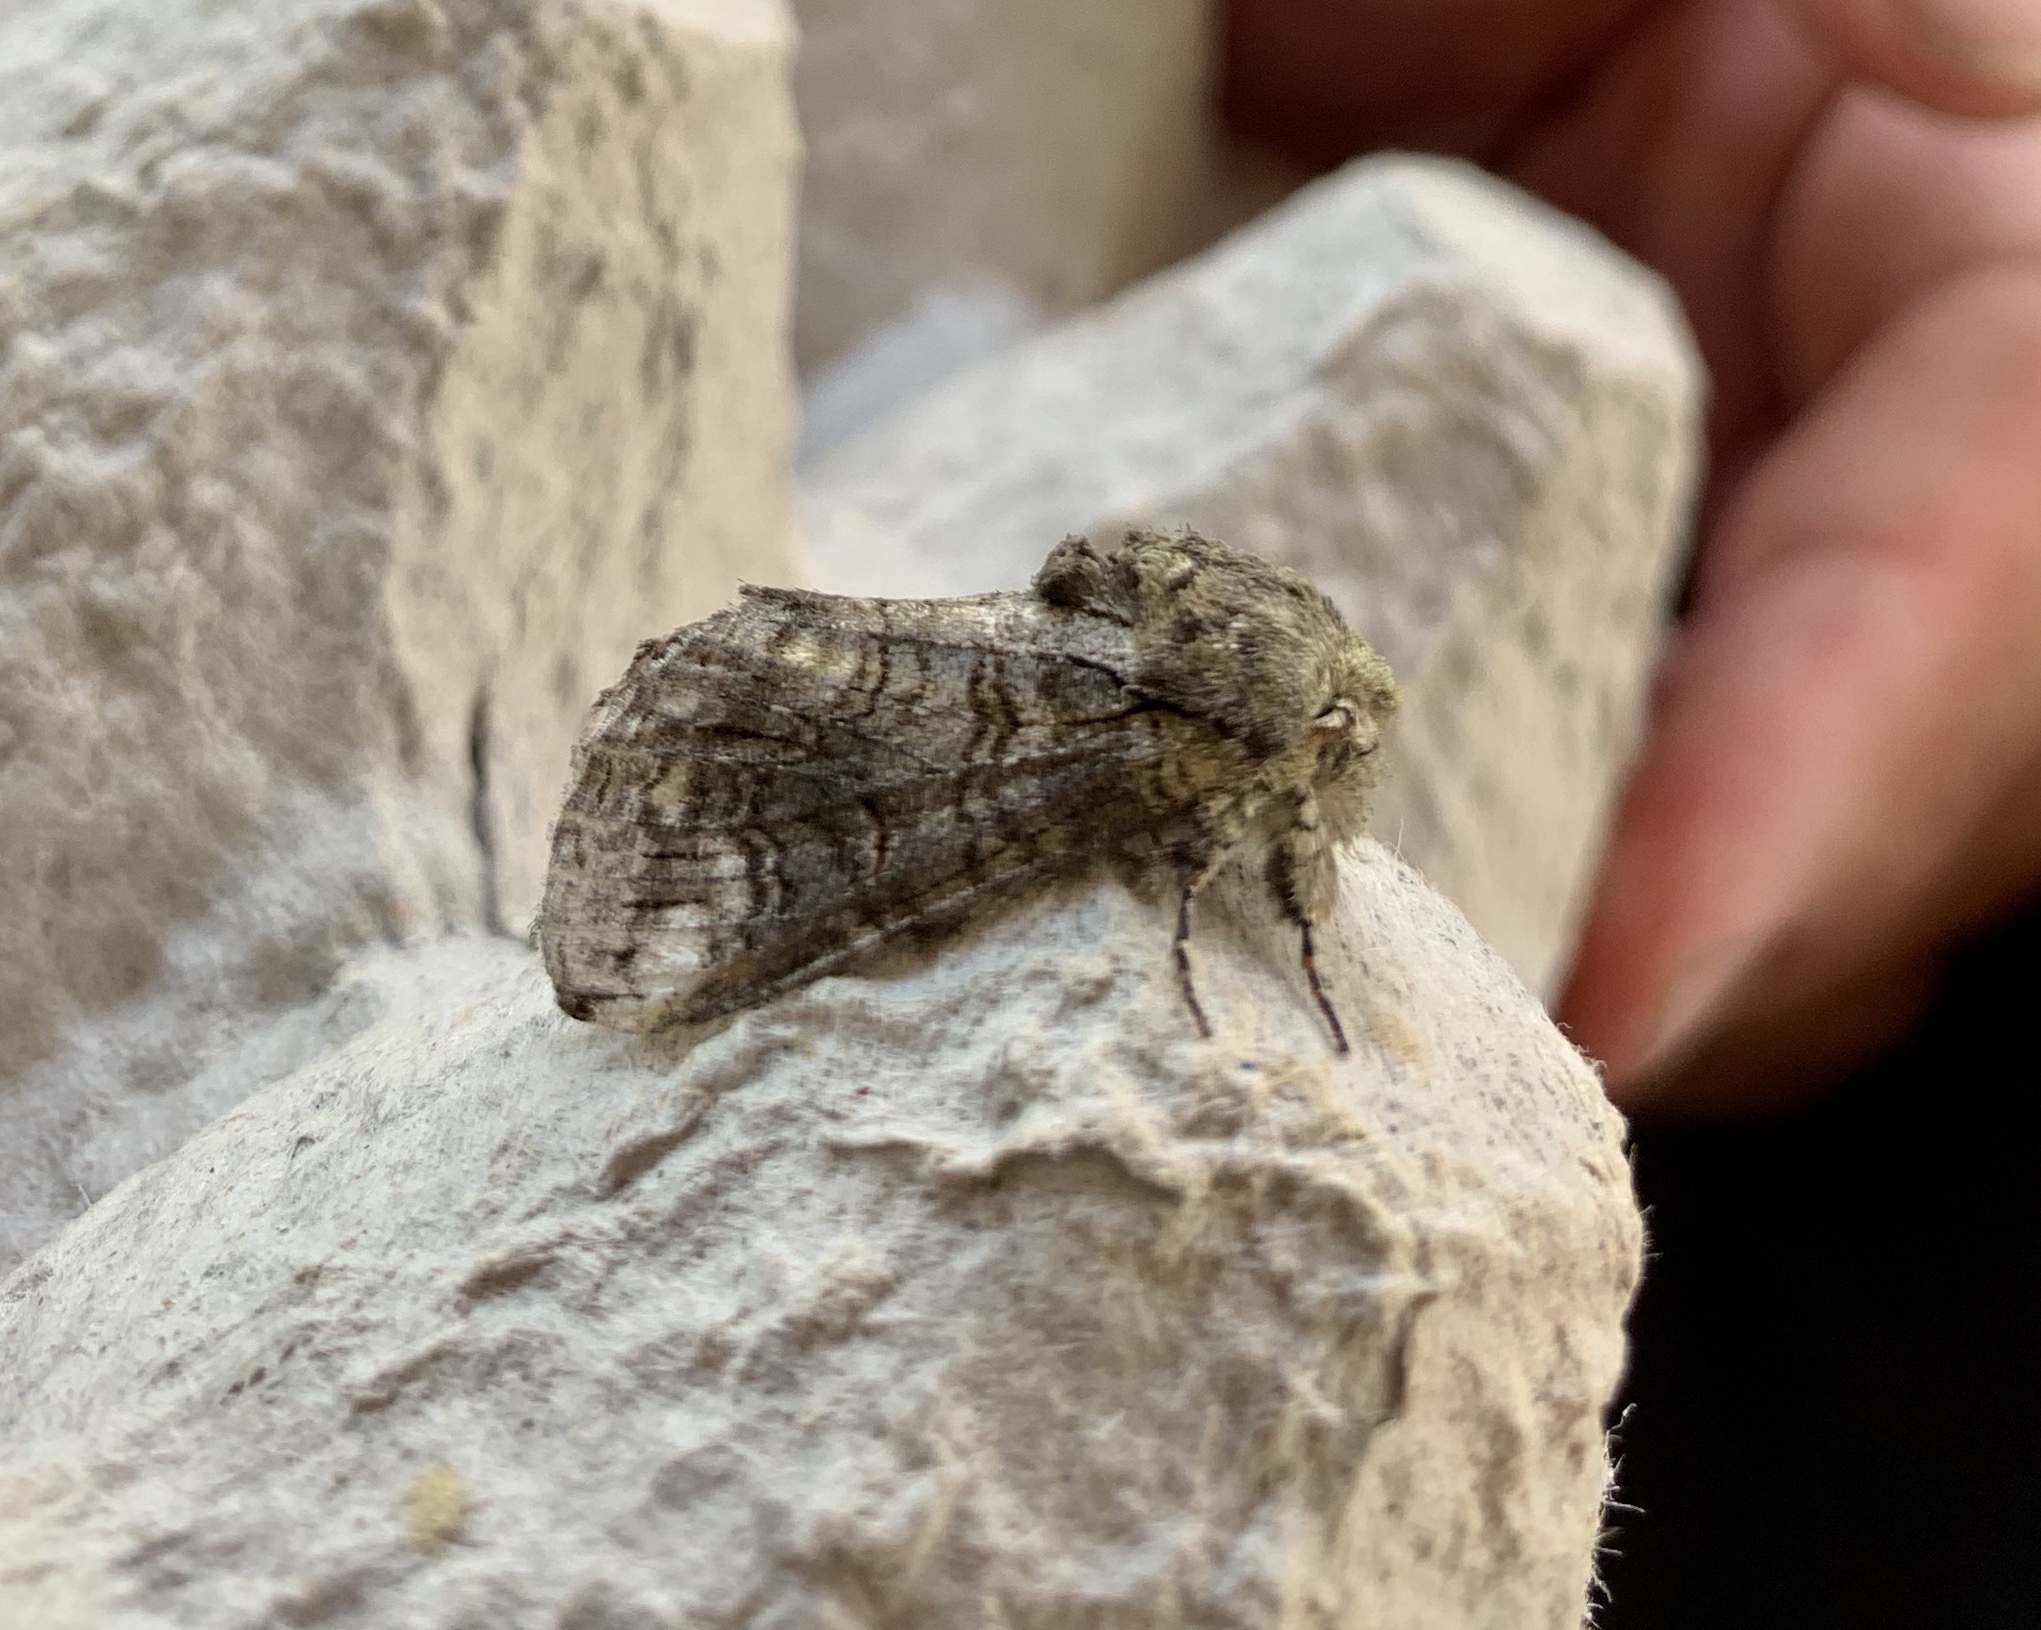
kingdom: Animalia
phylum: Arthropoda
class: Insecta
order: Lepidoptera
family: Notodontidae
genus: Heterocampa
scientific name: Heterocampa obliqua
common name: Oblique heterocampa
